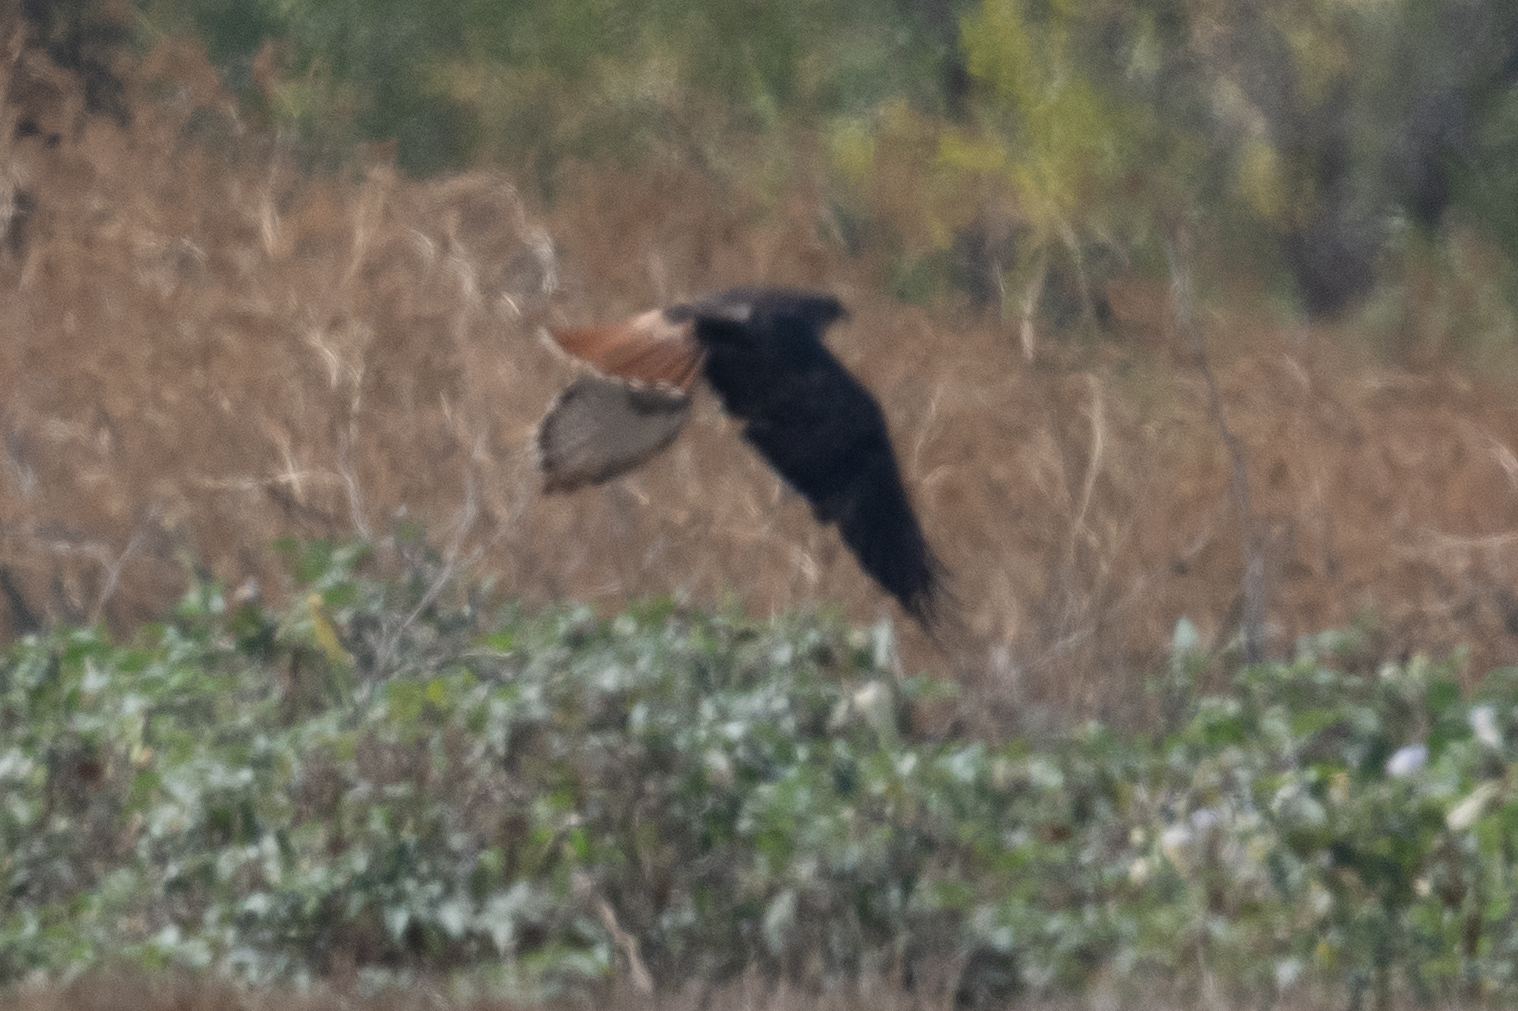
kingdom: Animalia
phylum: Chordata
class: Aves
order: Accipitriformes
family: Accipitridae
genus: Buteo
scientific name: Buteo jamaicensis
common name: Red-tailed hawk
